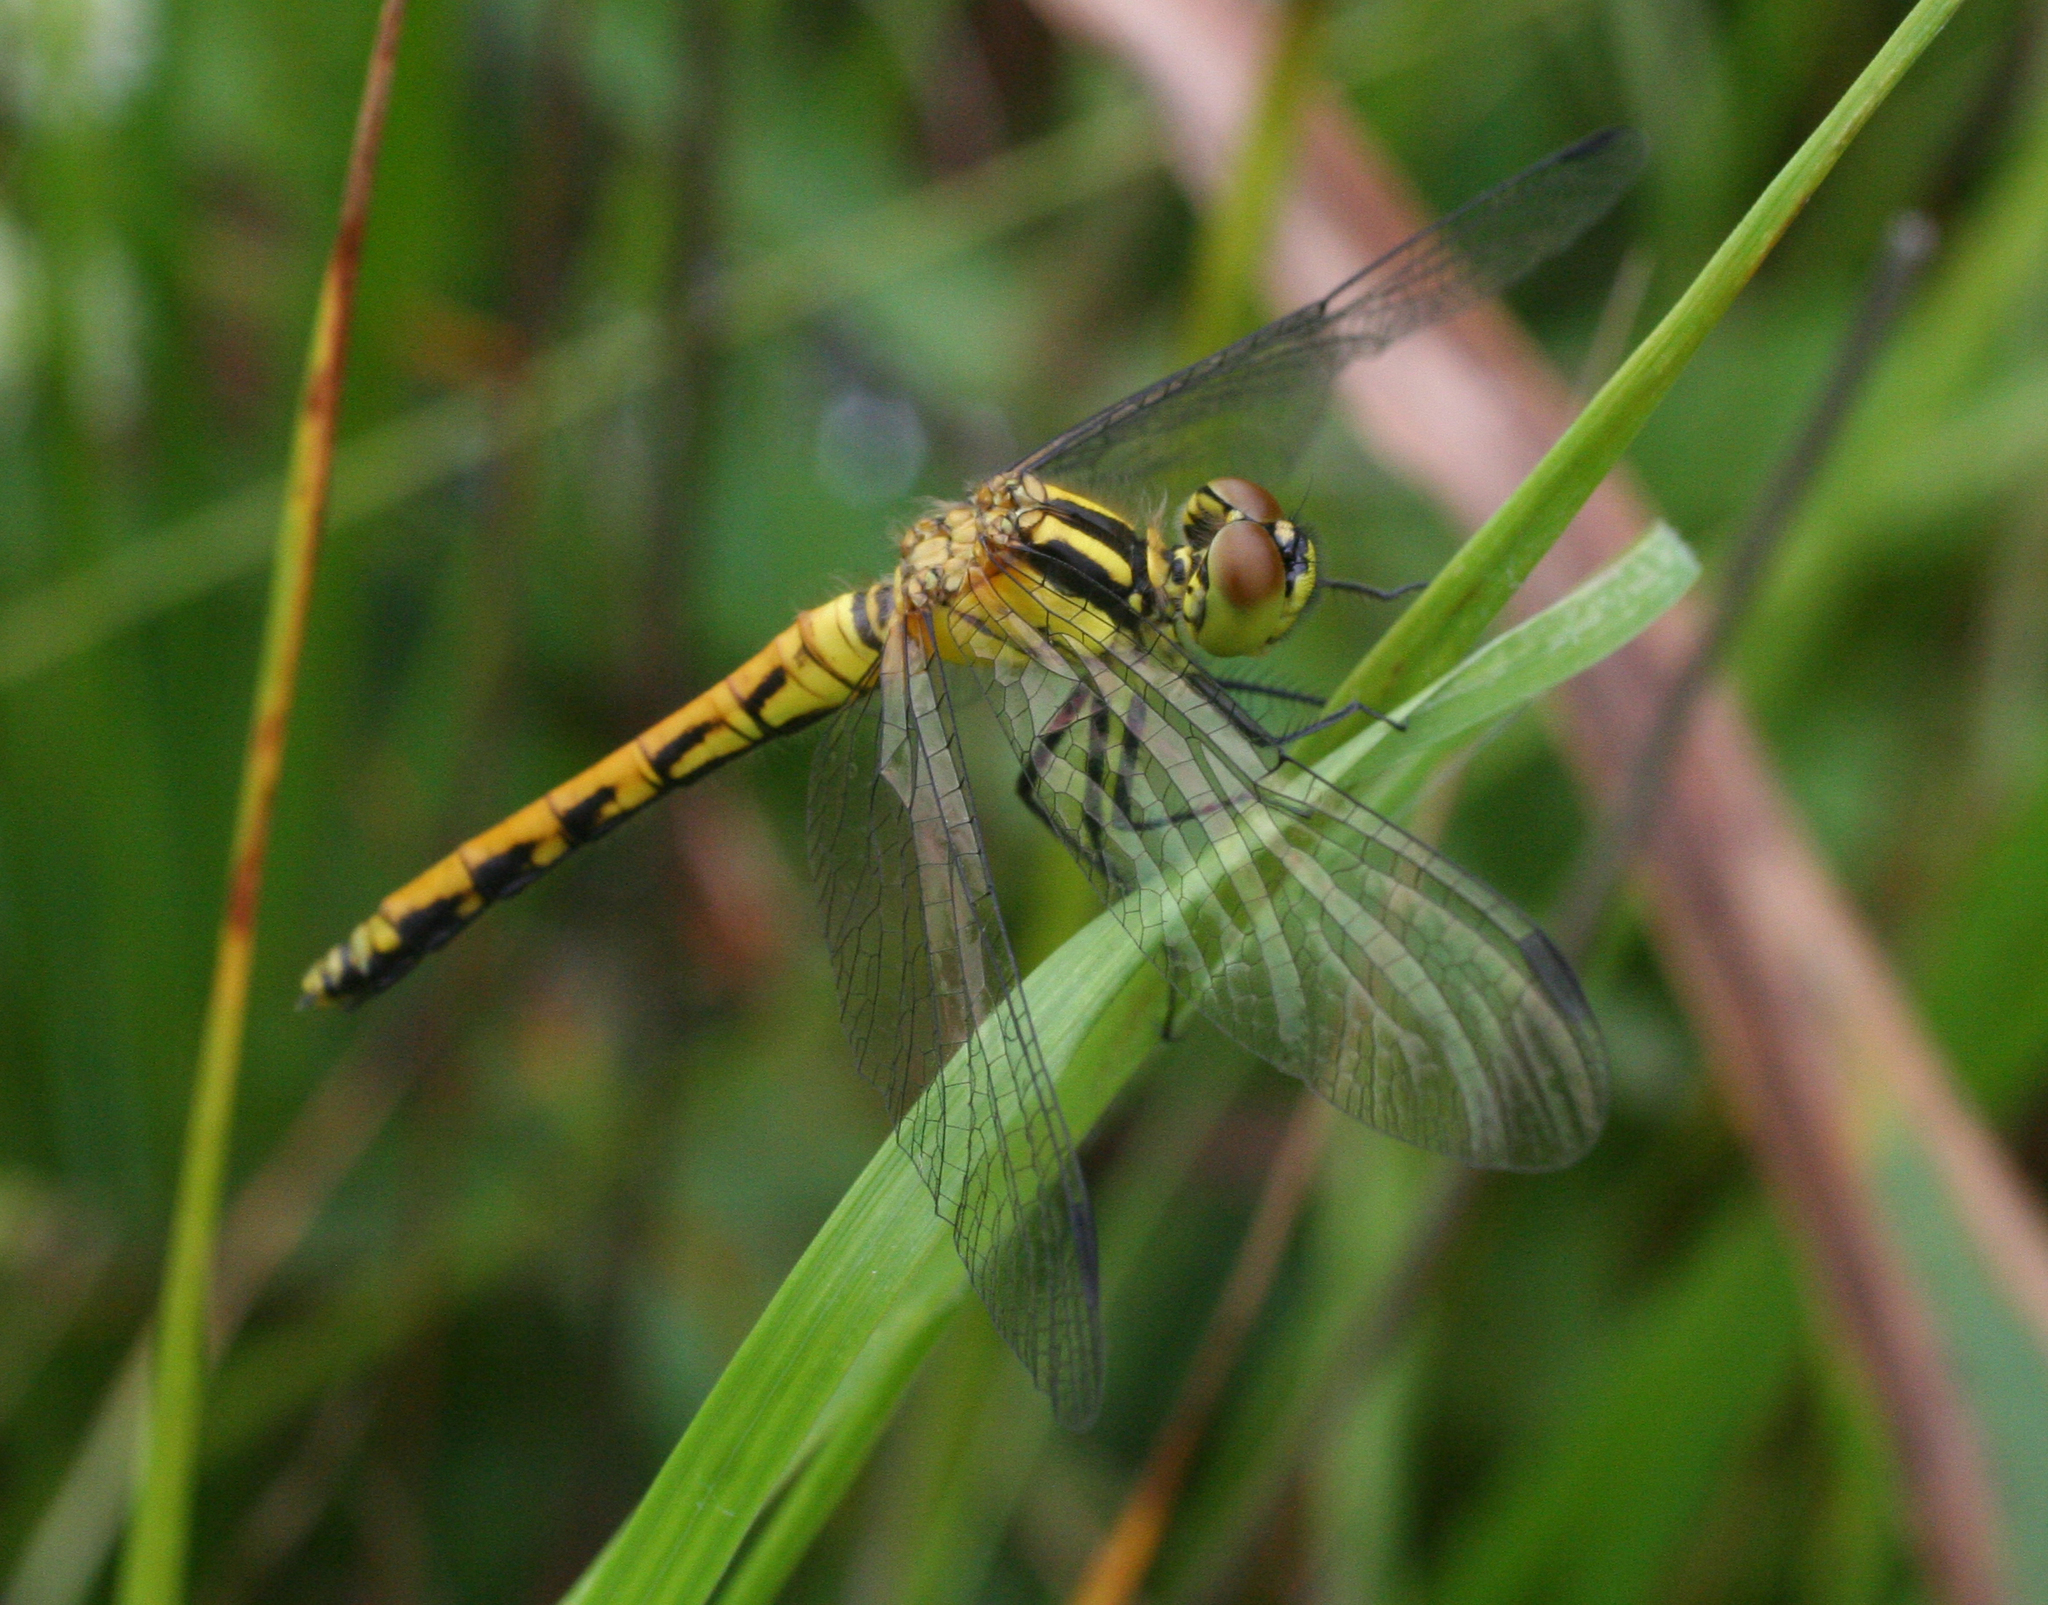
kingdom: Animalia
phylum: Arthropoda
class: Insecta
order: Odonata
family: Libellulidae
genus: Sympetrum
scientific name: Sympetrum parvulum
